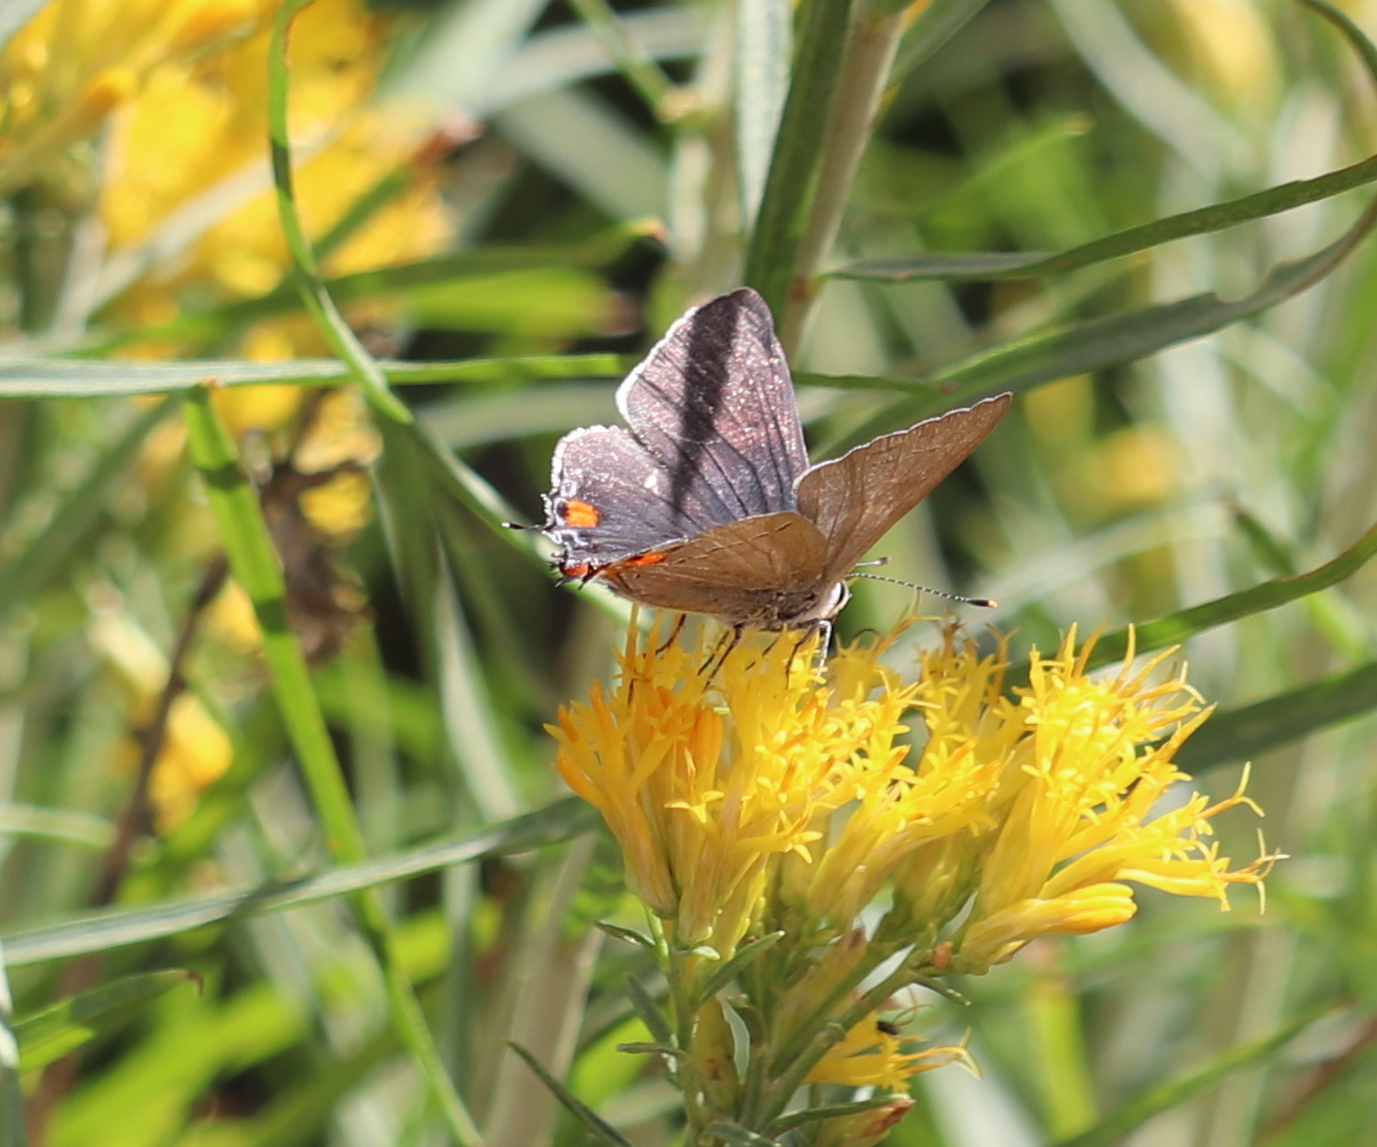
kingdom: Animalia
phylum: Arthropoda
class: Insecta
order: Lepidoptera
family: Lycaenidae
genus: Strymon
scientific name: Strymon melinus
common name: Gray hairstreak
